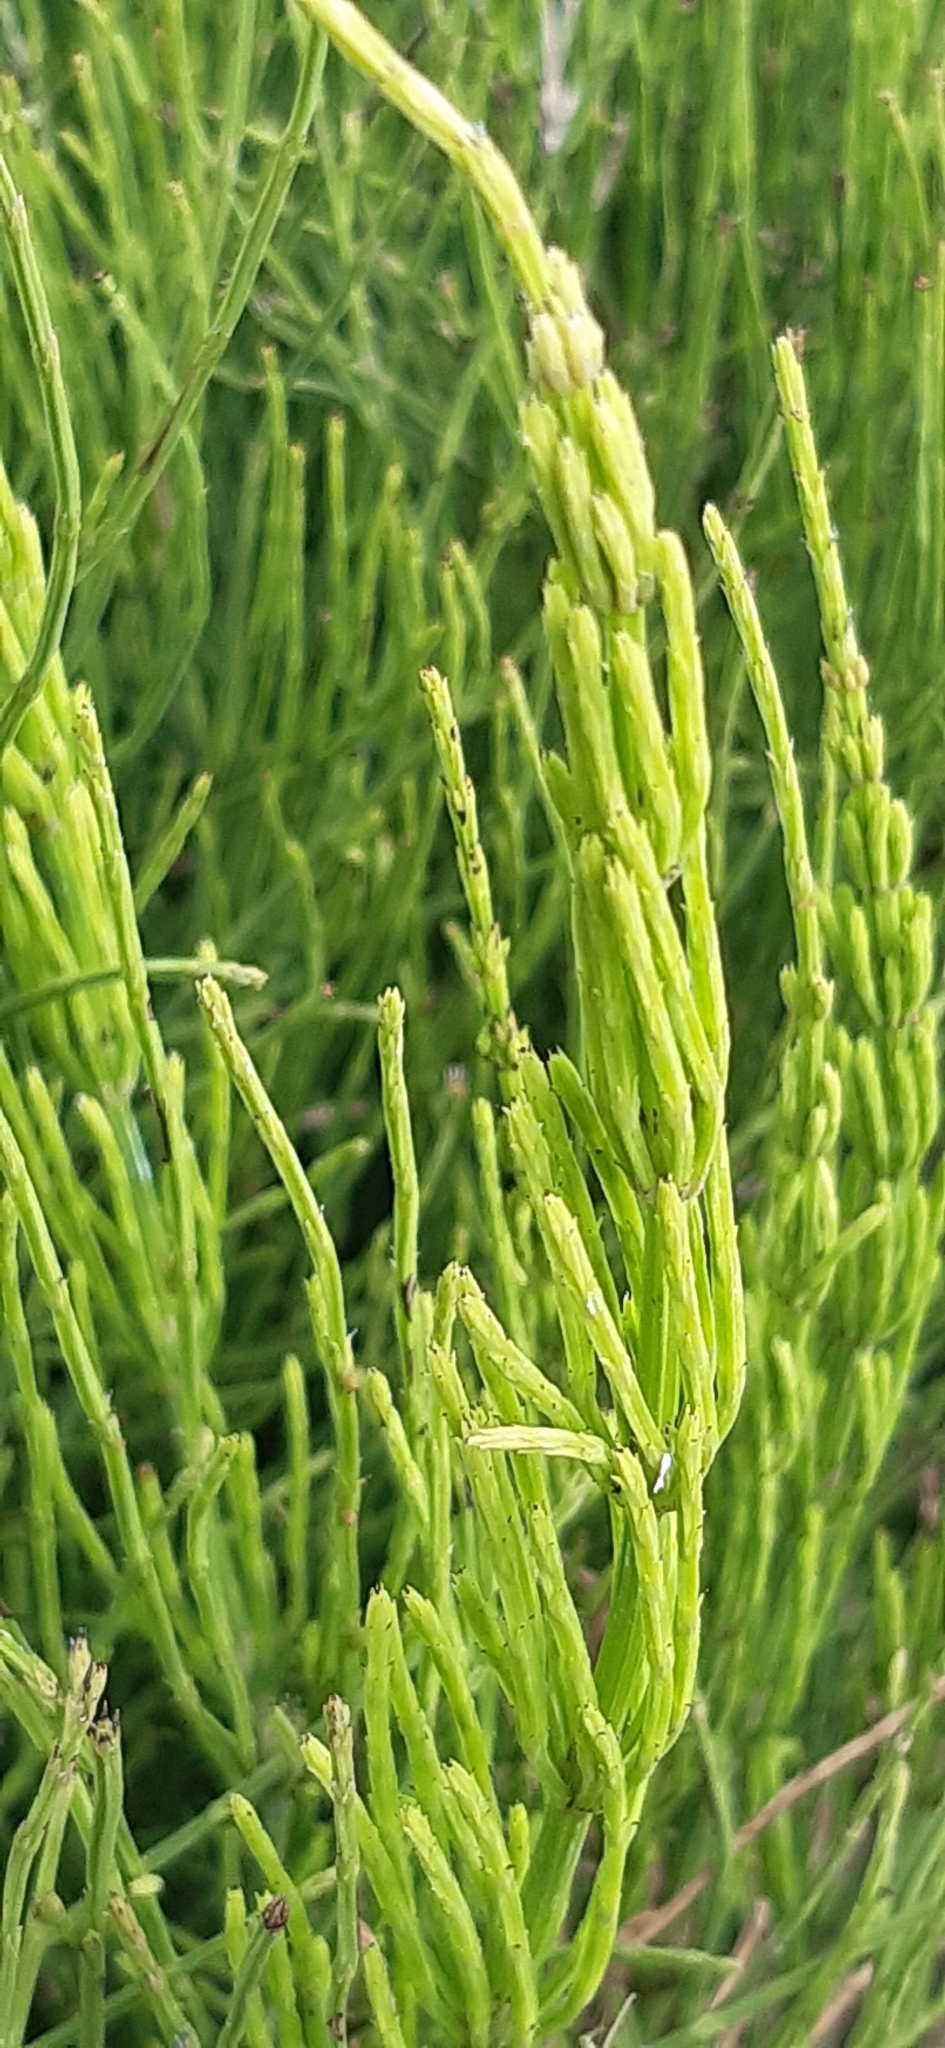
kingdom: Plantae
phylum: Tracheophyta
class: Polypodiopsida
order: Equisetales
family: Equisetaceae
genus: Equisetum
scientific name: Equisetum arvense
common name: Field horsetail
